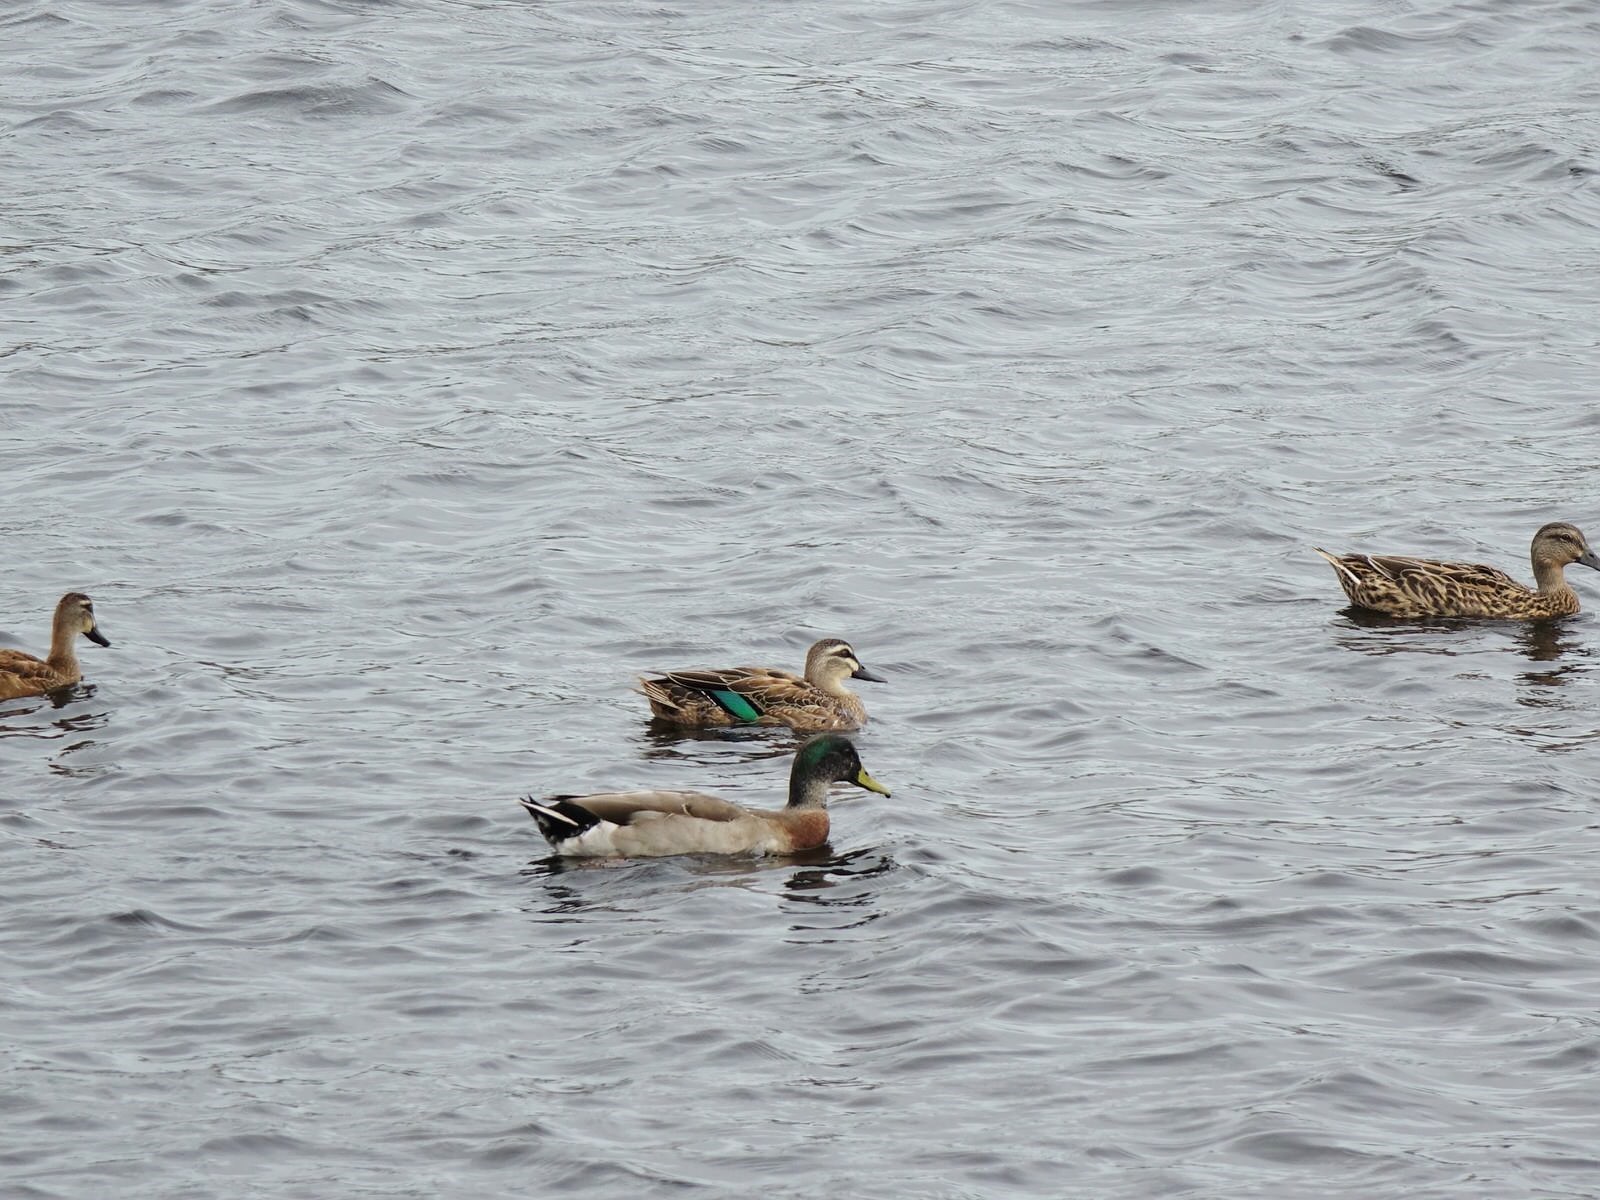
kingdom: Animalia
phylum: Chordata
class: Aves
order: Anseriformes
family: Anatidae
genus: Anas
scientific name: Anas
